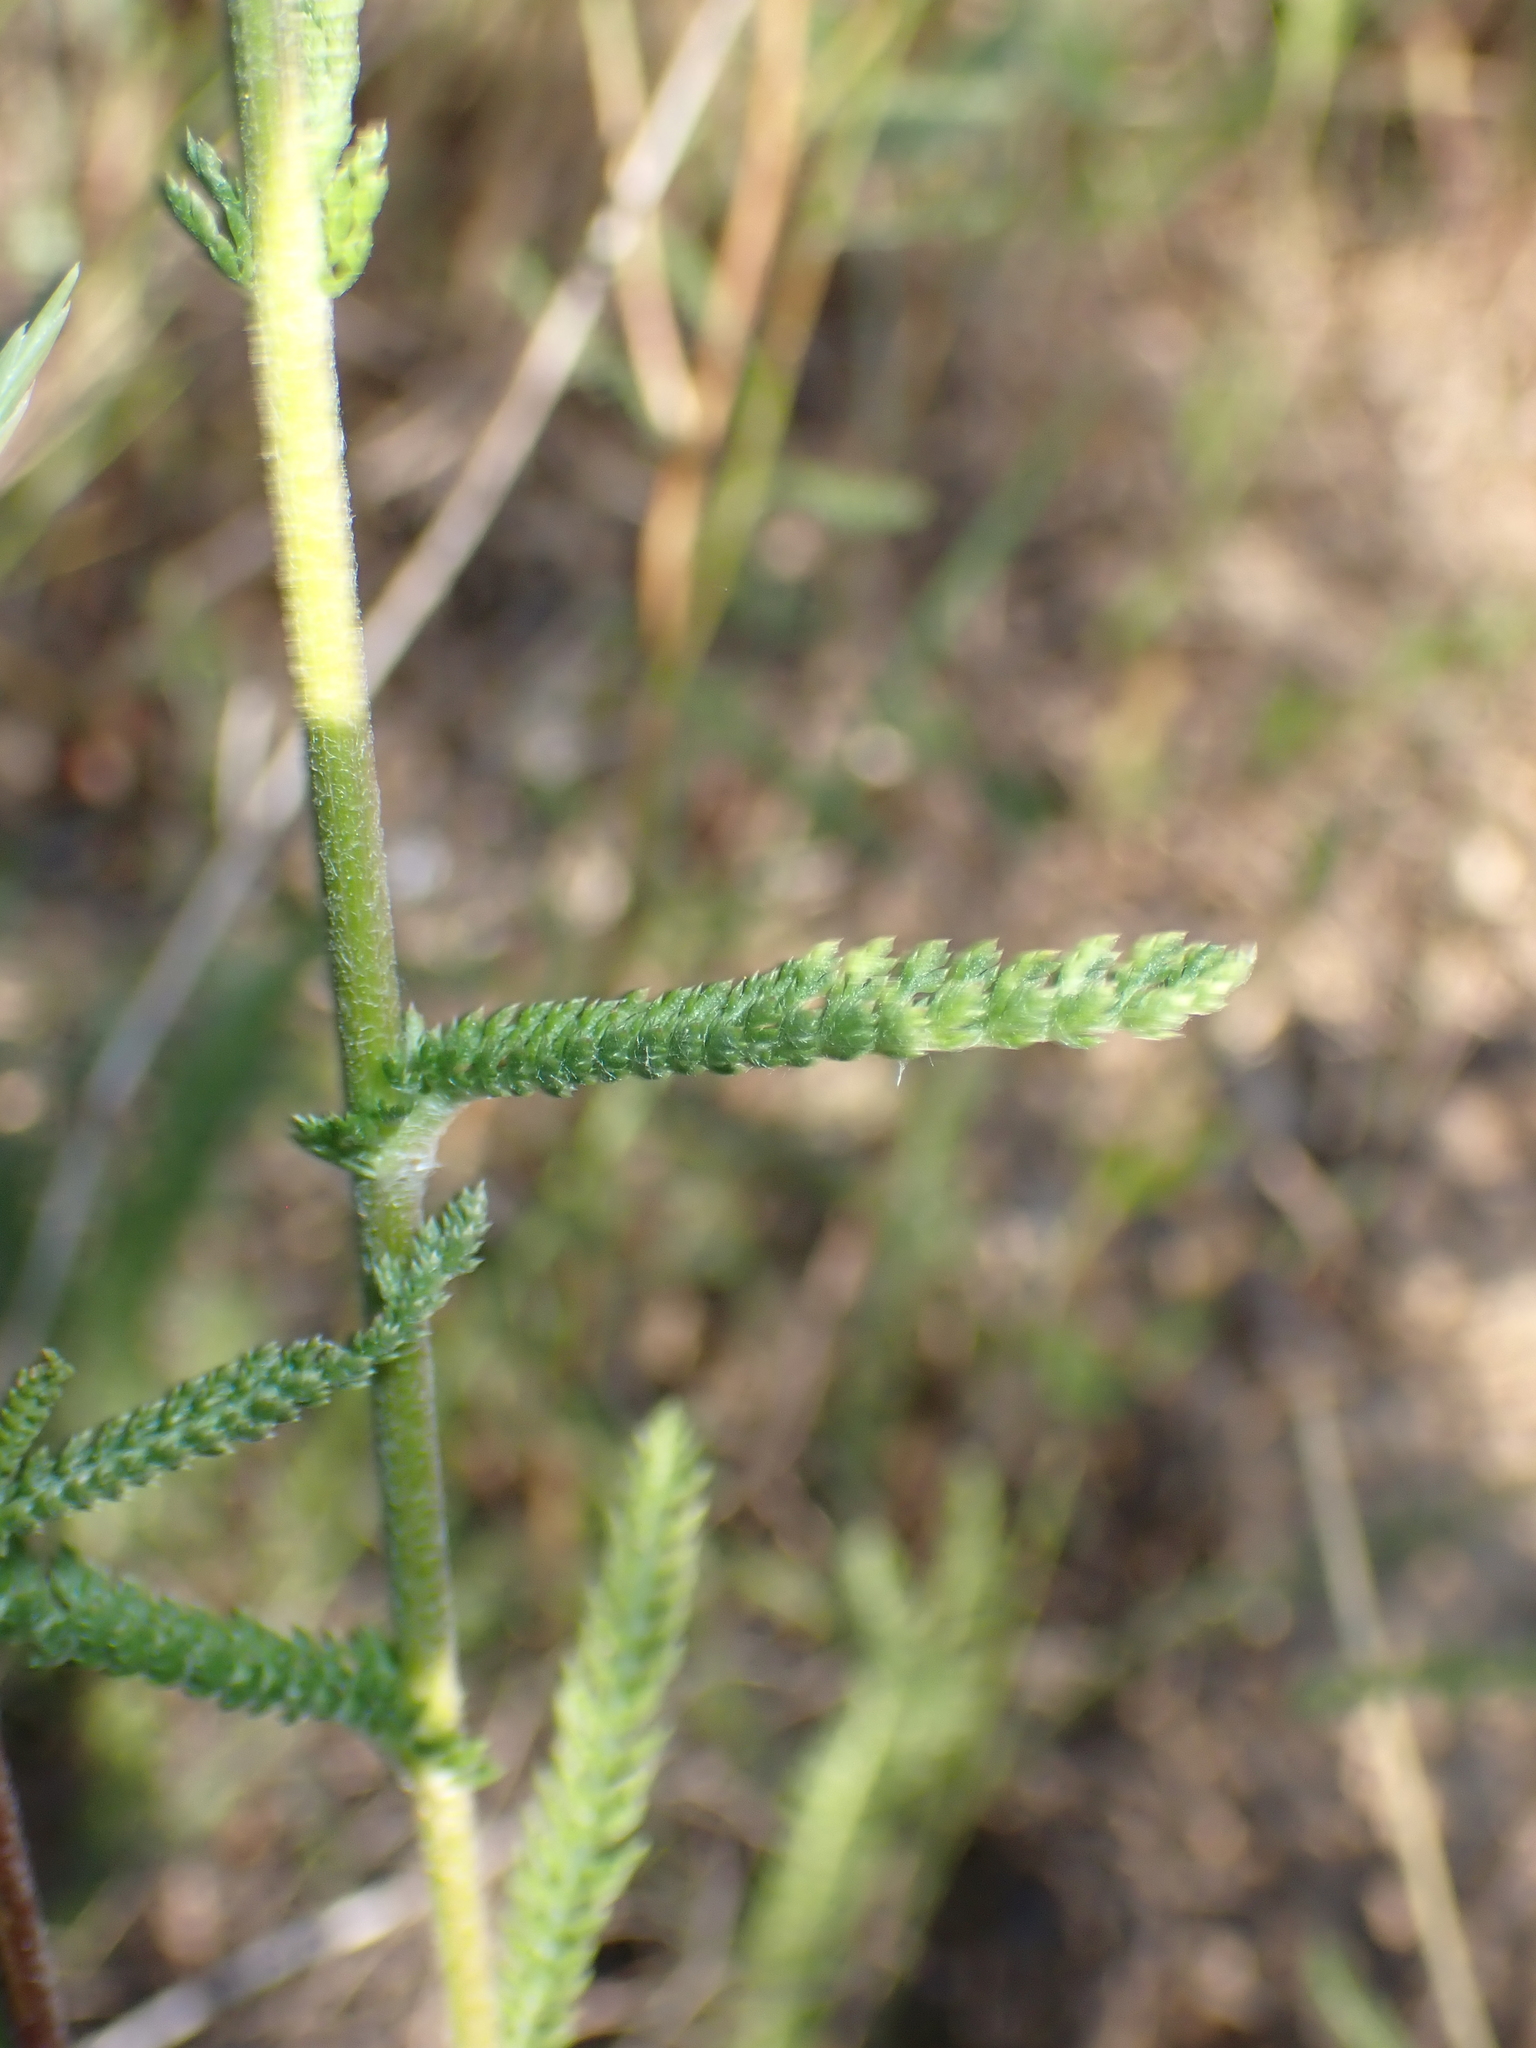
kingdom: Plantae
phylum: Tracheophyta
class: Magnoliopsida
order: Asterales
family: Asteraceae
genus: Achillea
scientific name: Achillea millefolium
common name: Yarrow
